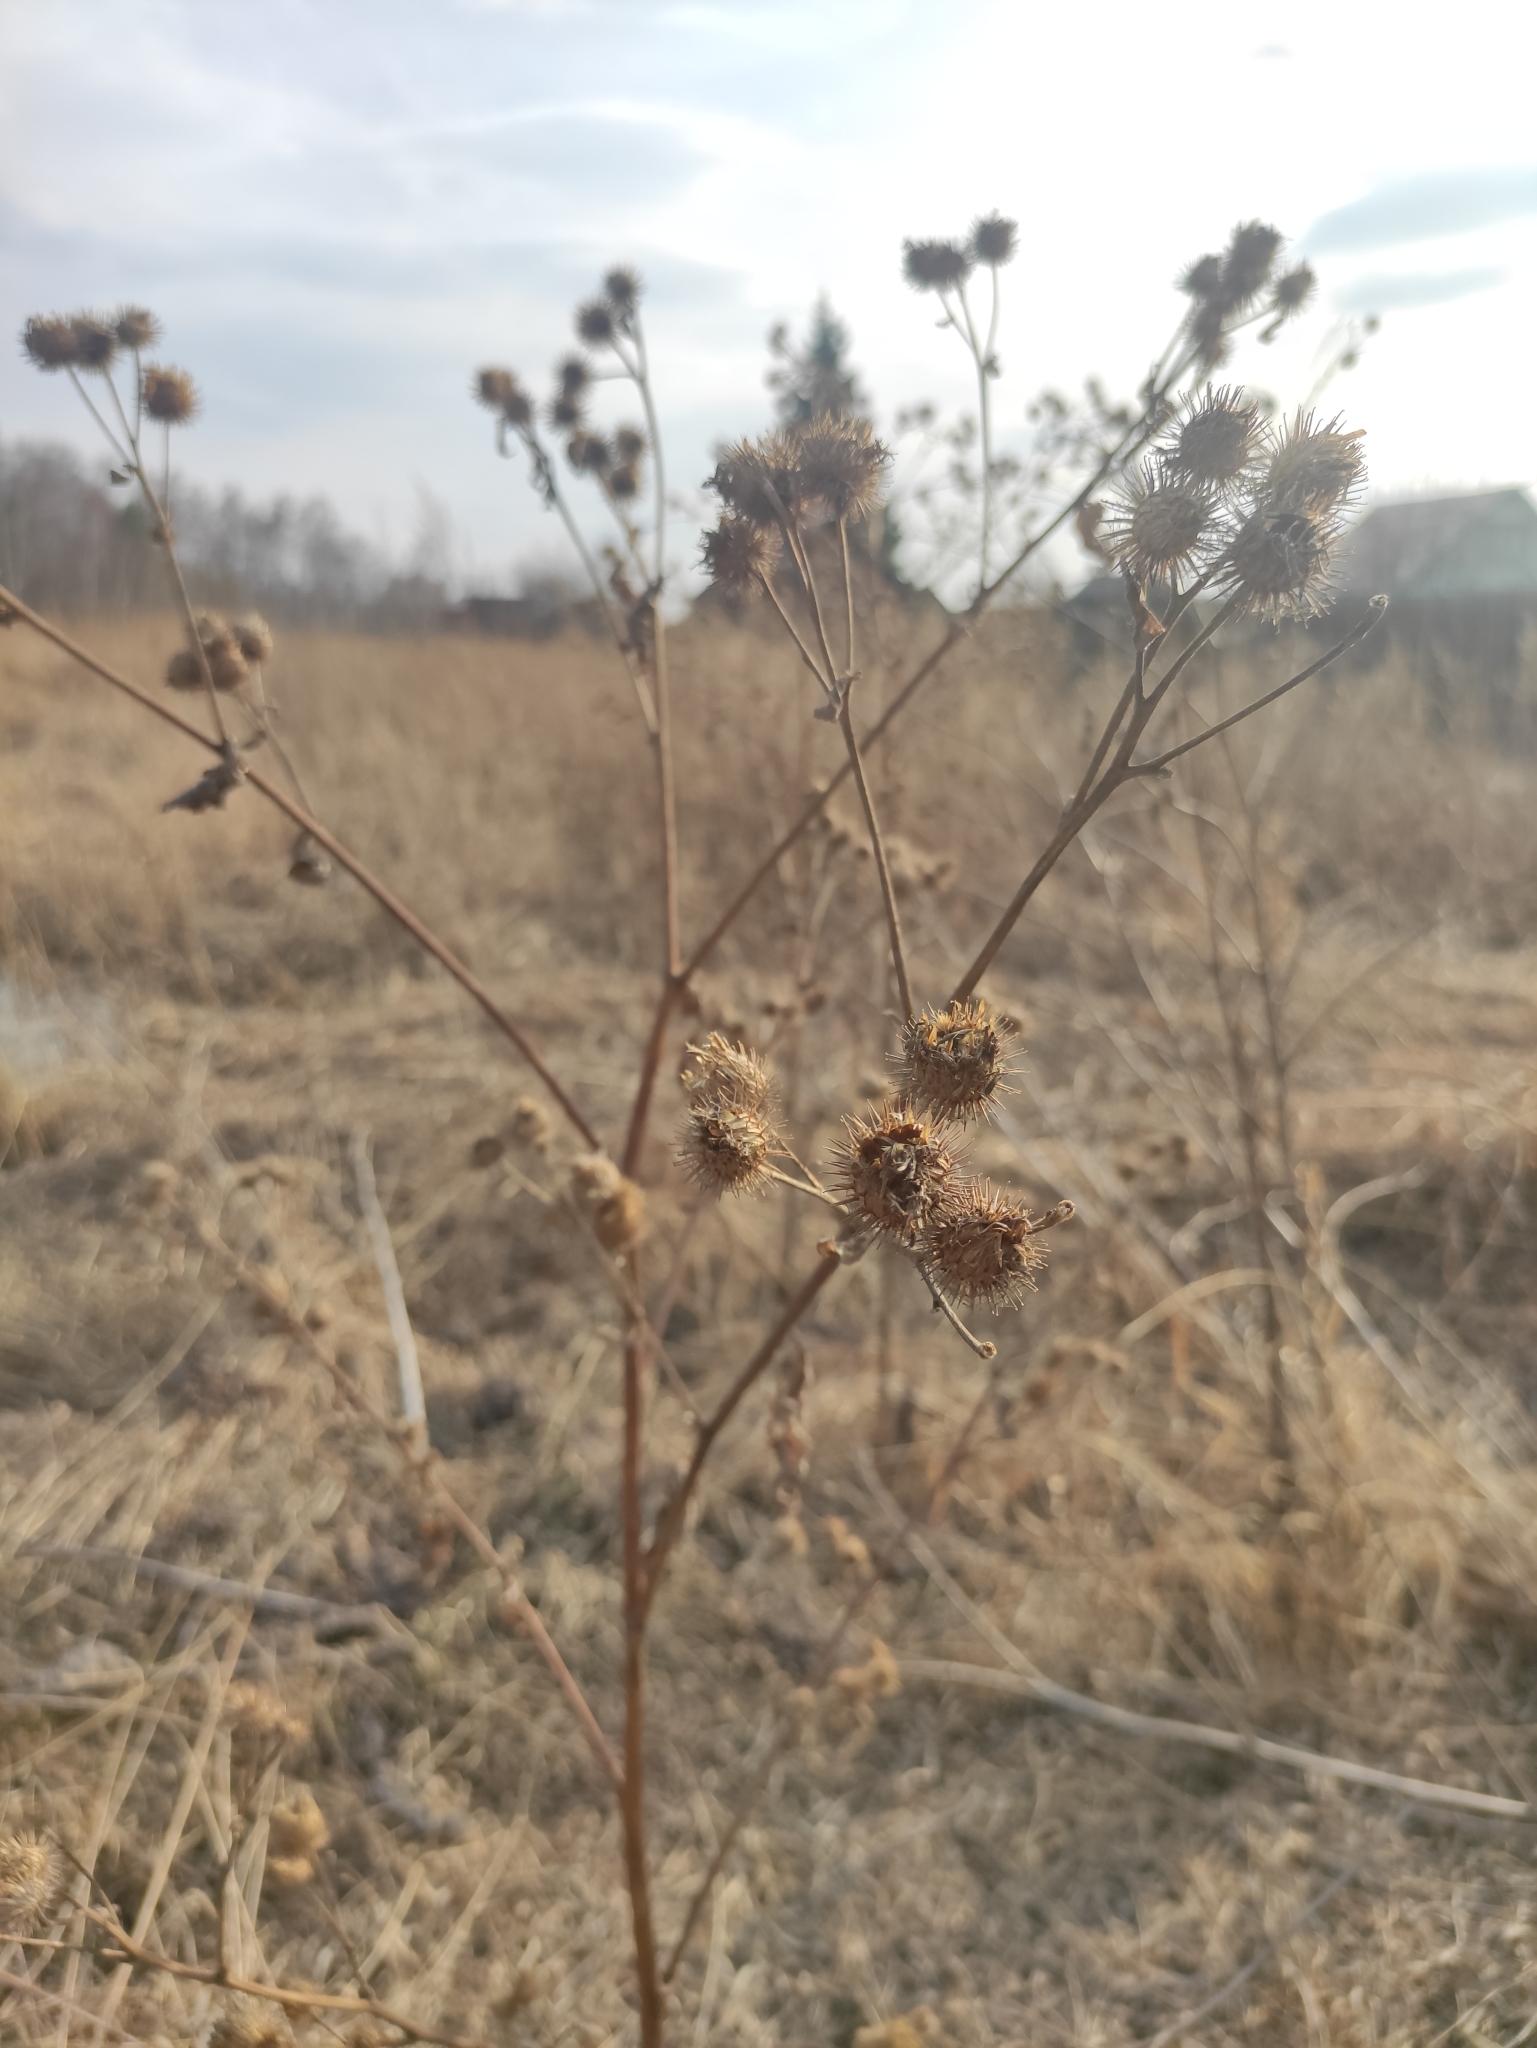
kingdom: Plantae
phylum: Tracheophyta
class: Magnoliopsida
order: Asterales
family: Asteraceae
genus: Arctium
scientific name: Arctium tomentosum
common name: Woolly burdock
